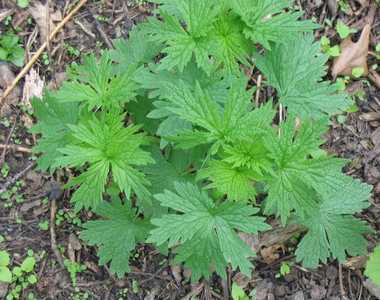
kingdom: Plantae
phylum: Tracheophyta
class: Magnoliopsida
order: Lamiales
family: Lamiaceae
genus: Leonurus
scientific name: Leonurus cardiaca
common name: Motherwort
